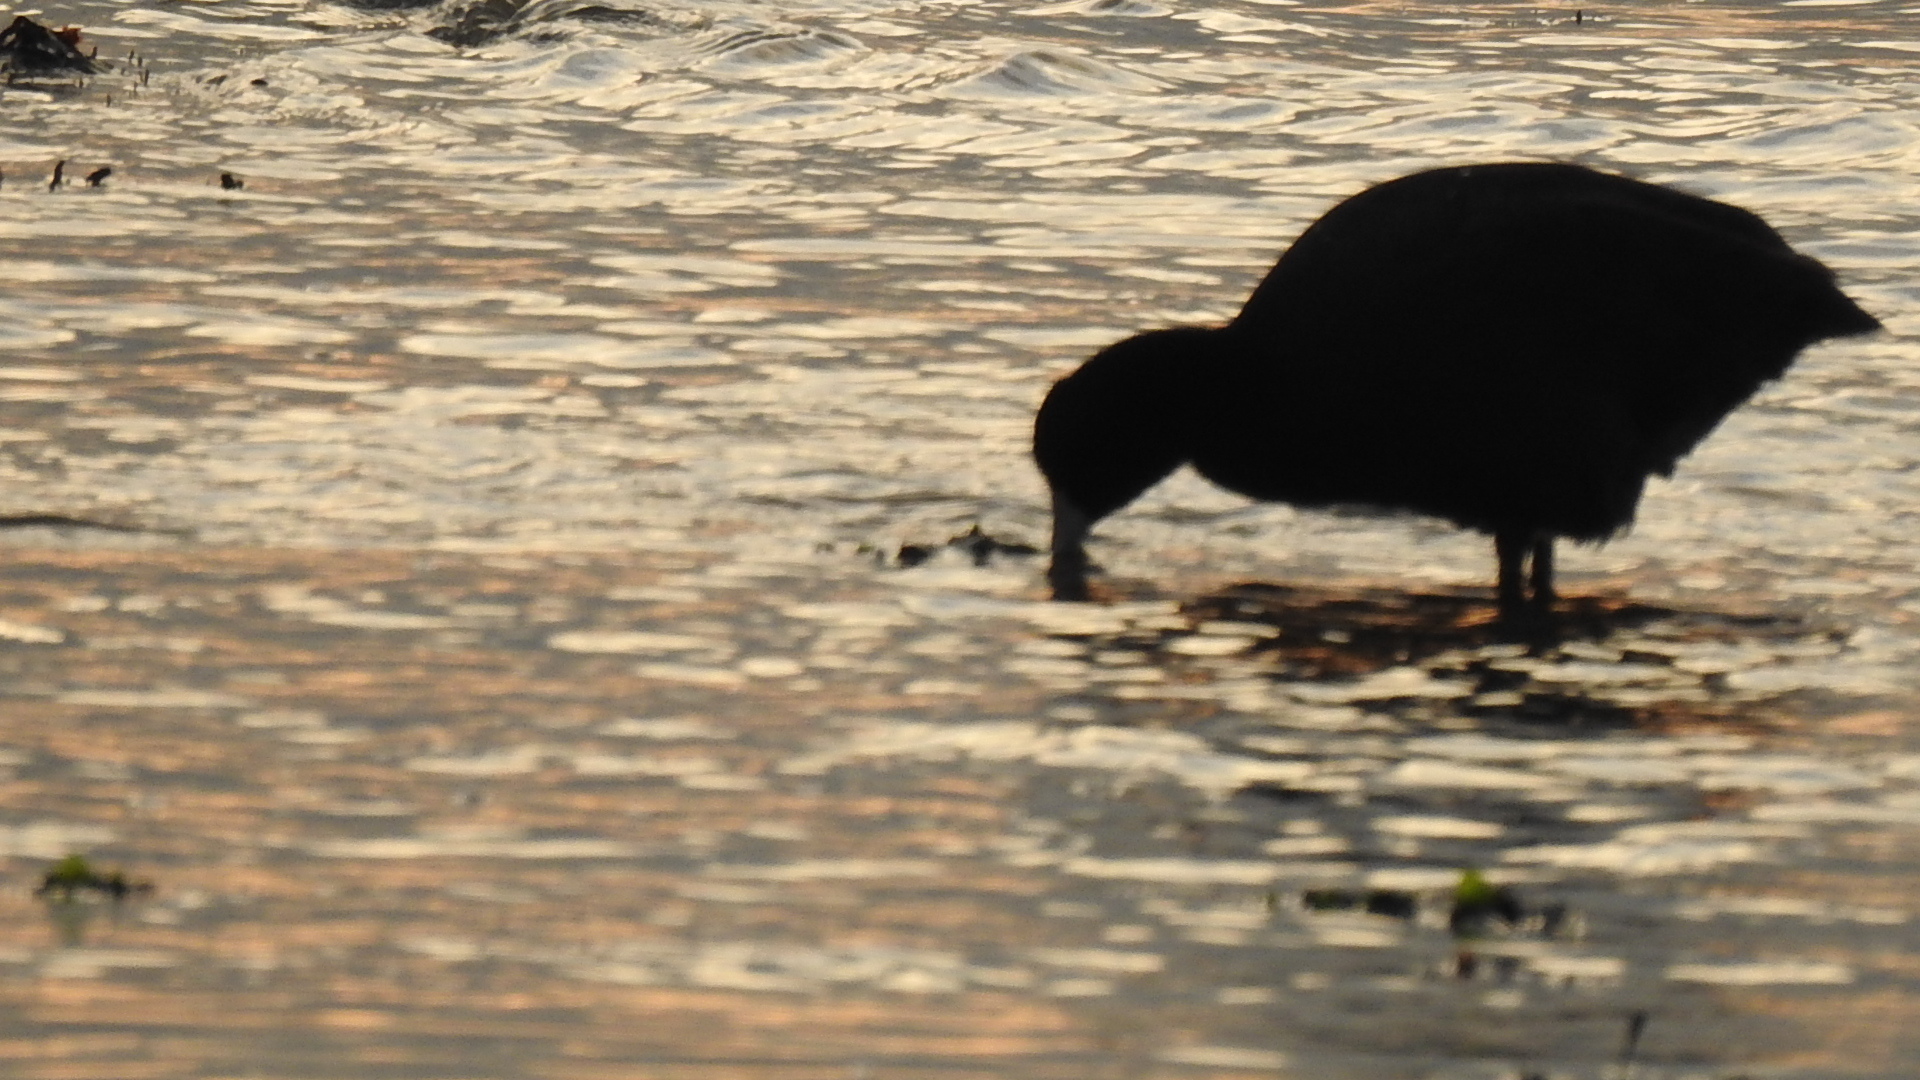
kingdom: Animalia
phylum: Chordata
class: Aves
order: Gruiformes
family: Rallidae
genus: Fulica
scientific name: Fulica americana
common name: American coot
